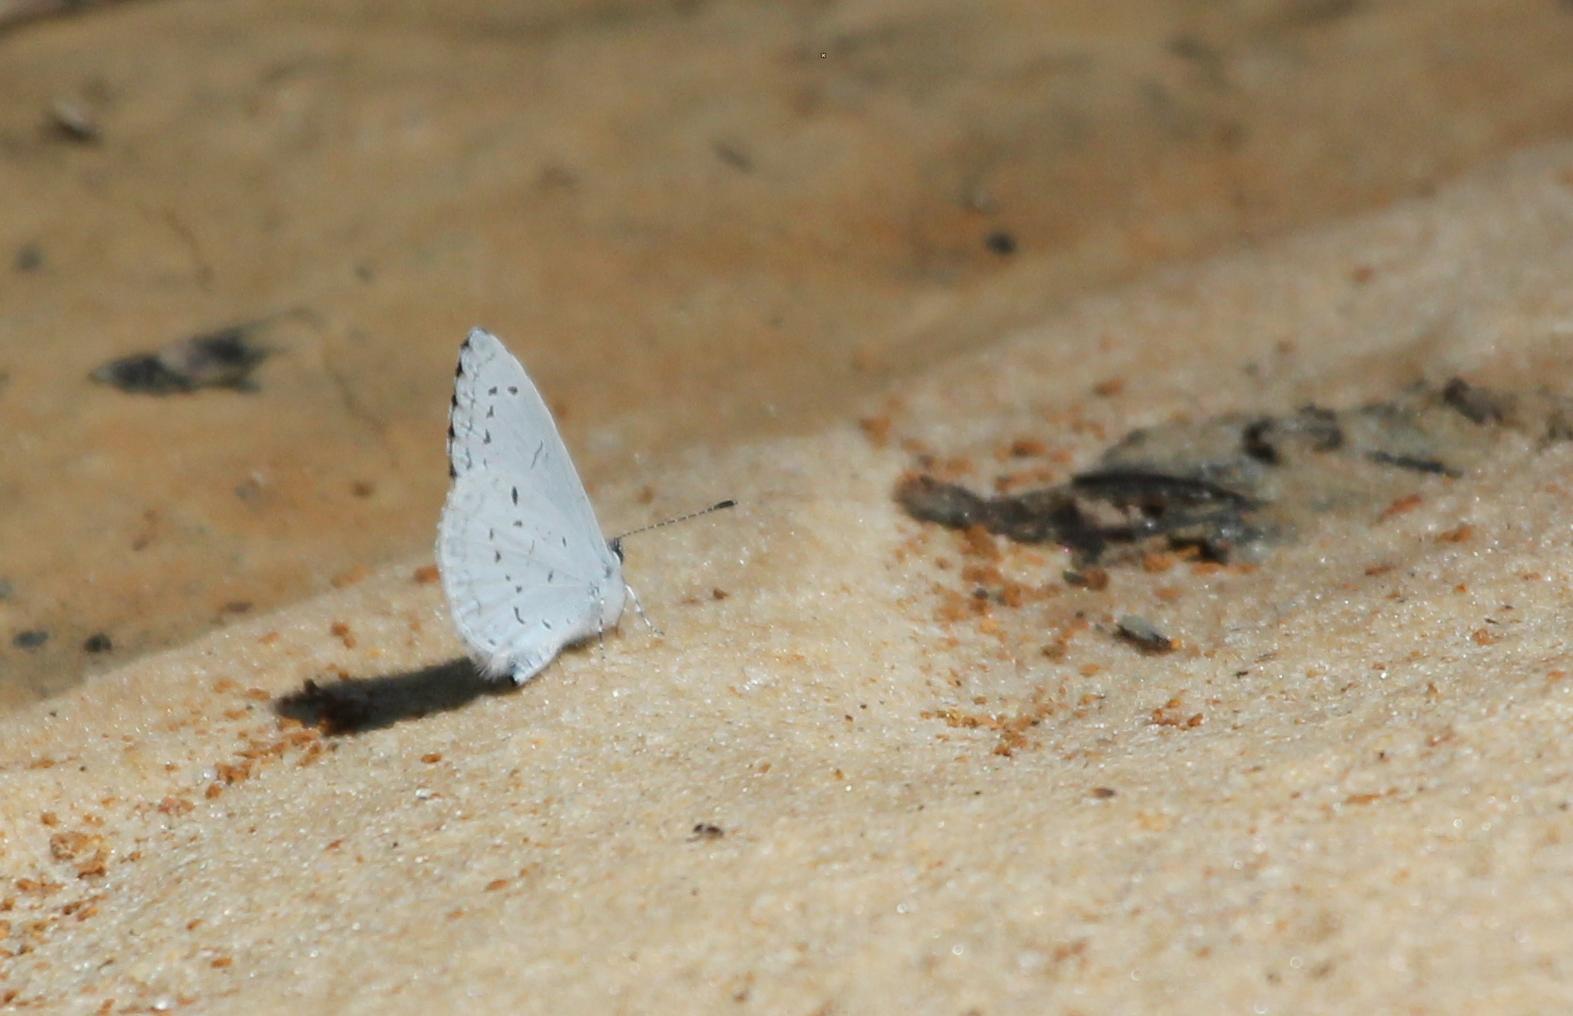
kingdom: Animalia
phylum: Arthropoda
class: Insecta
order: Lepidoptera
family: Lycaenidae
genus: Cyaniris
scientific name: Cyaniris neglecta
